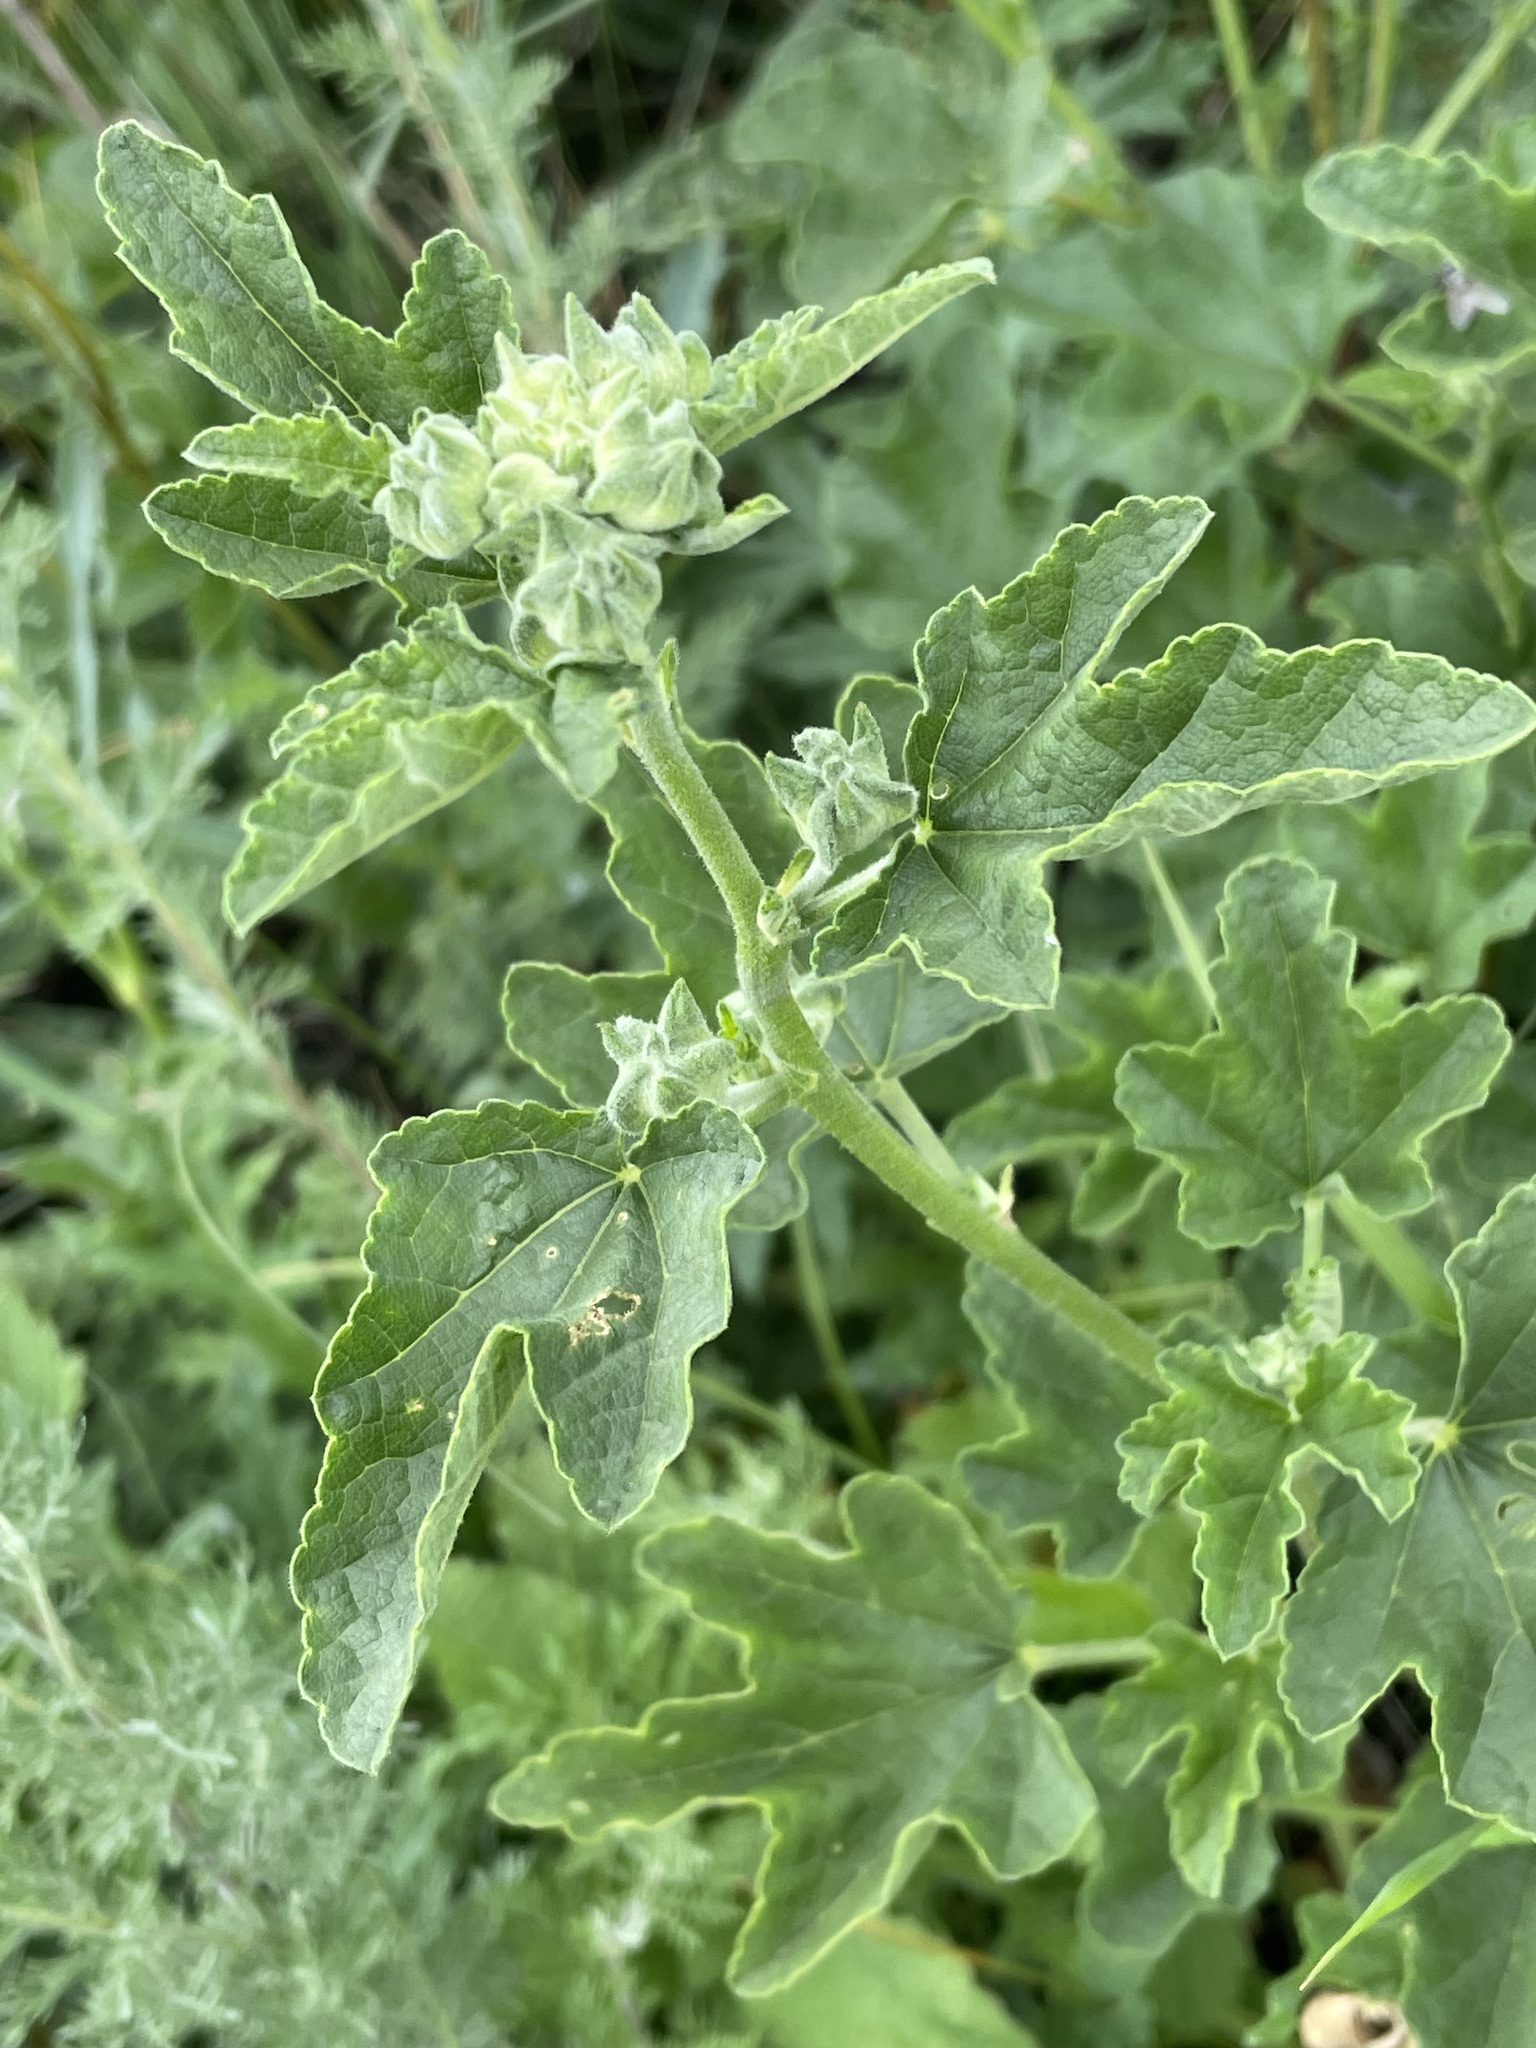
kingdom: Plantae
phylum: Tracheophyta
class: Magnoliopsida
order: Malvales
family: Malvaceae
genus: Malva
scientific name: Malva thuringiaca
